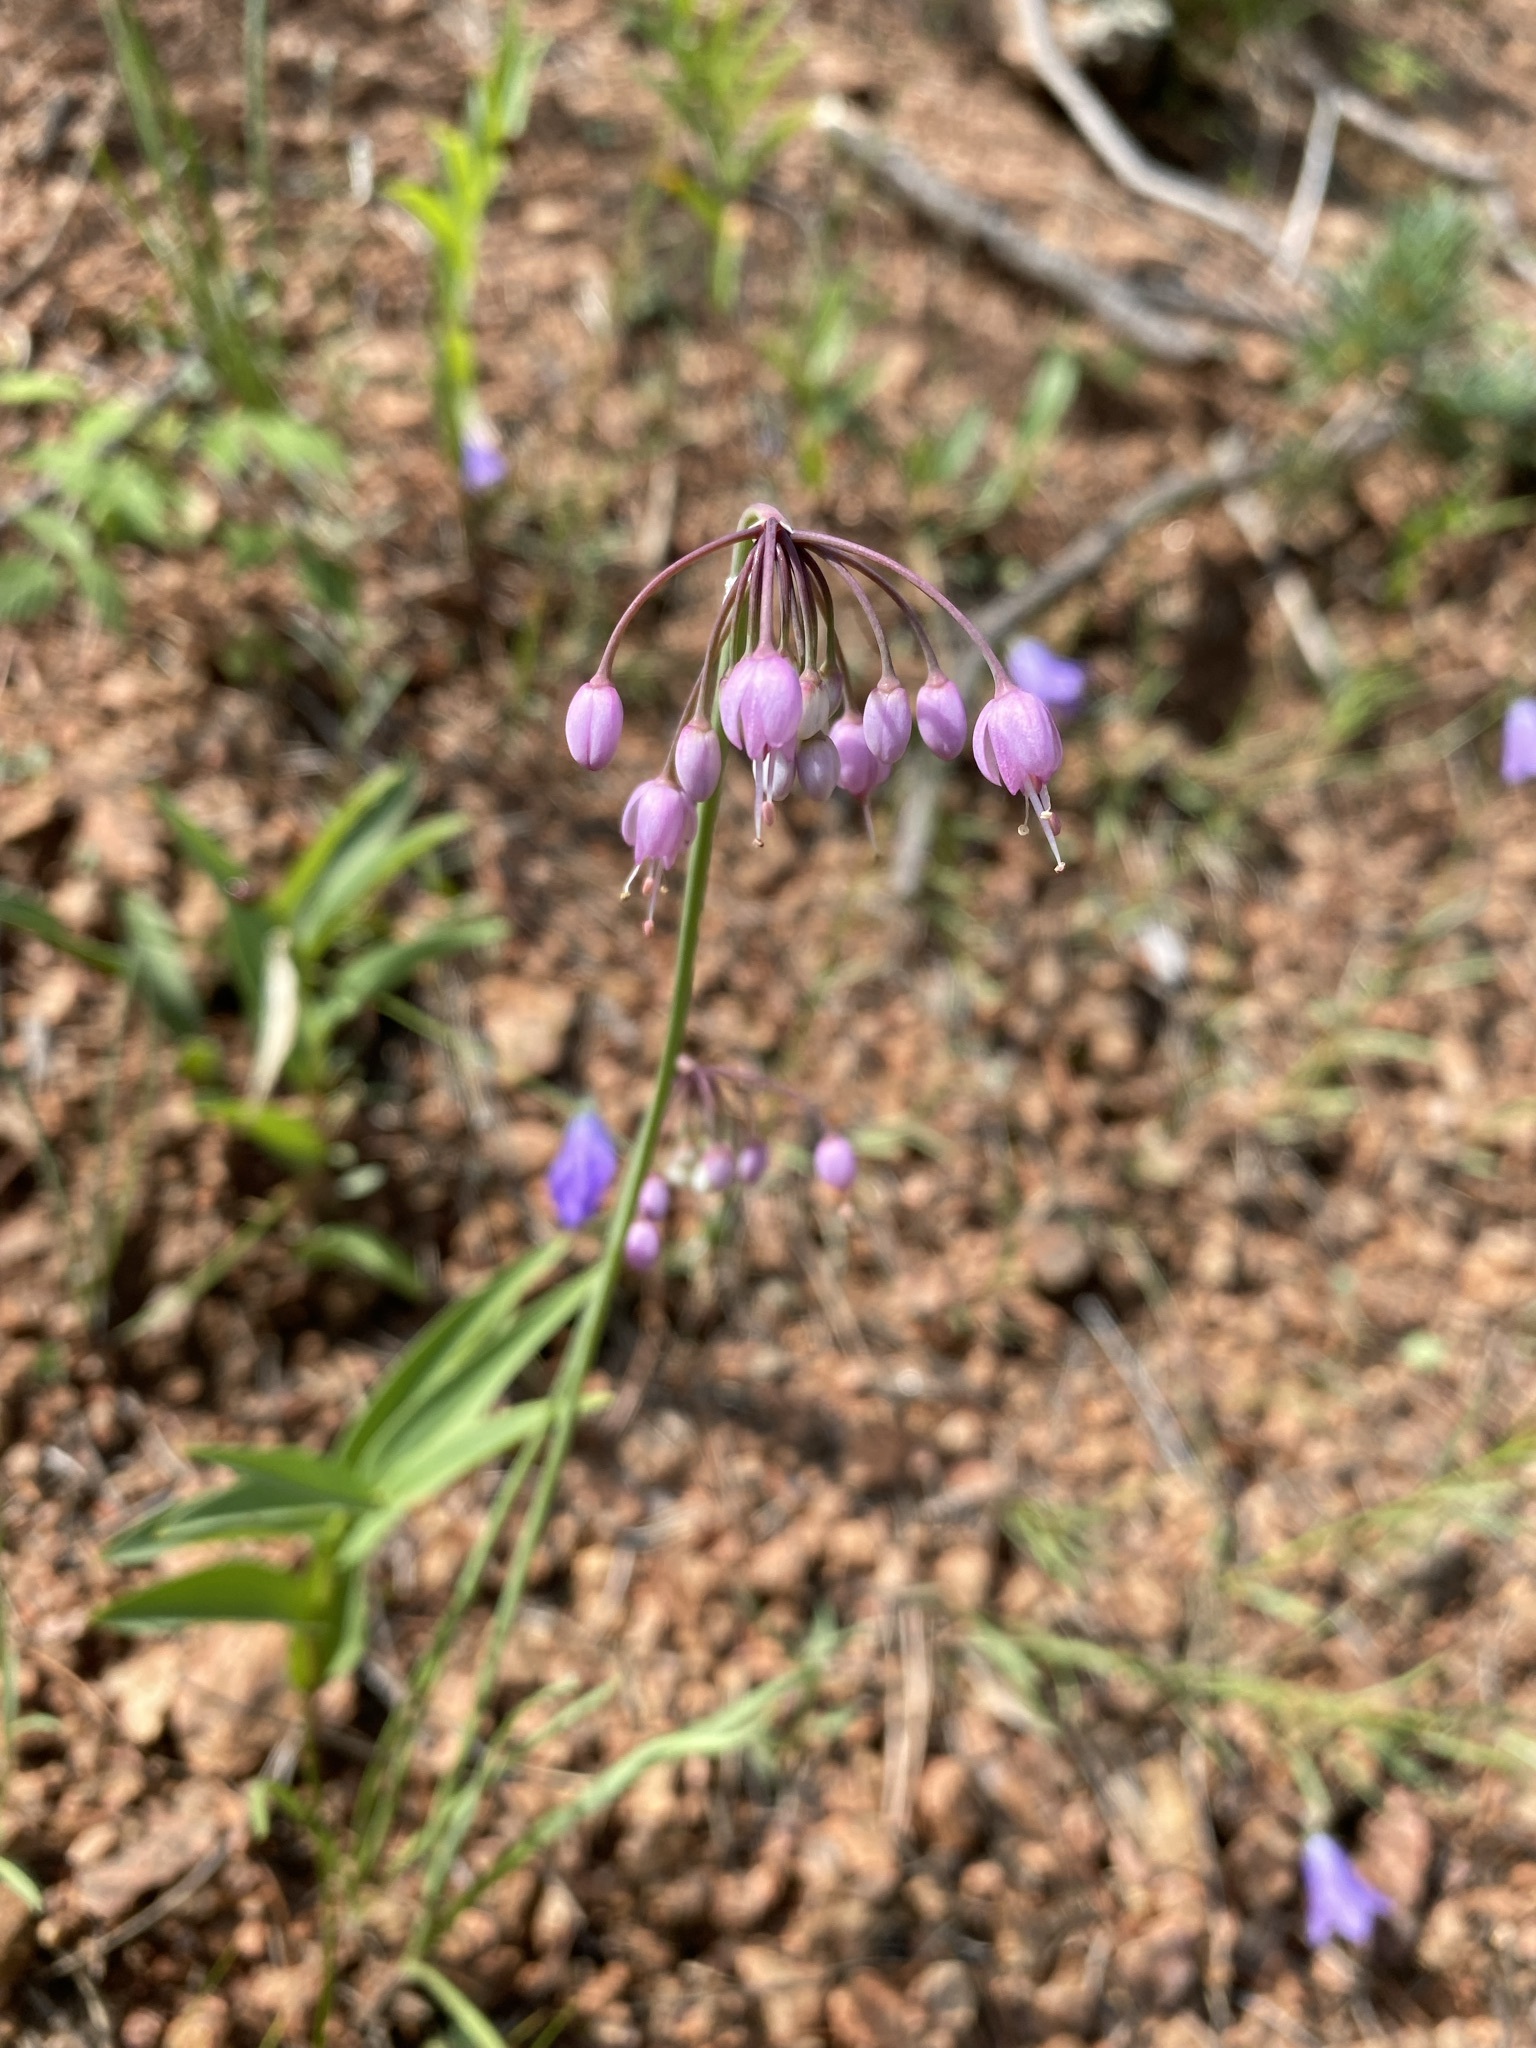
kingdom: Plantae
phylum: Tracheophyta
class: Liliopsida
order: Asparagales
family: Amaryllidaceae
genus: Allium
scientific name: Allium cernuum
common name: Nodding onion
